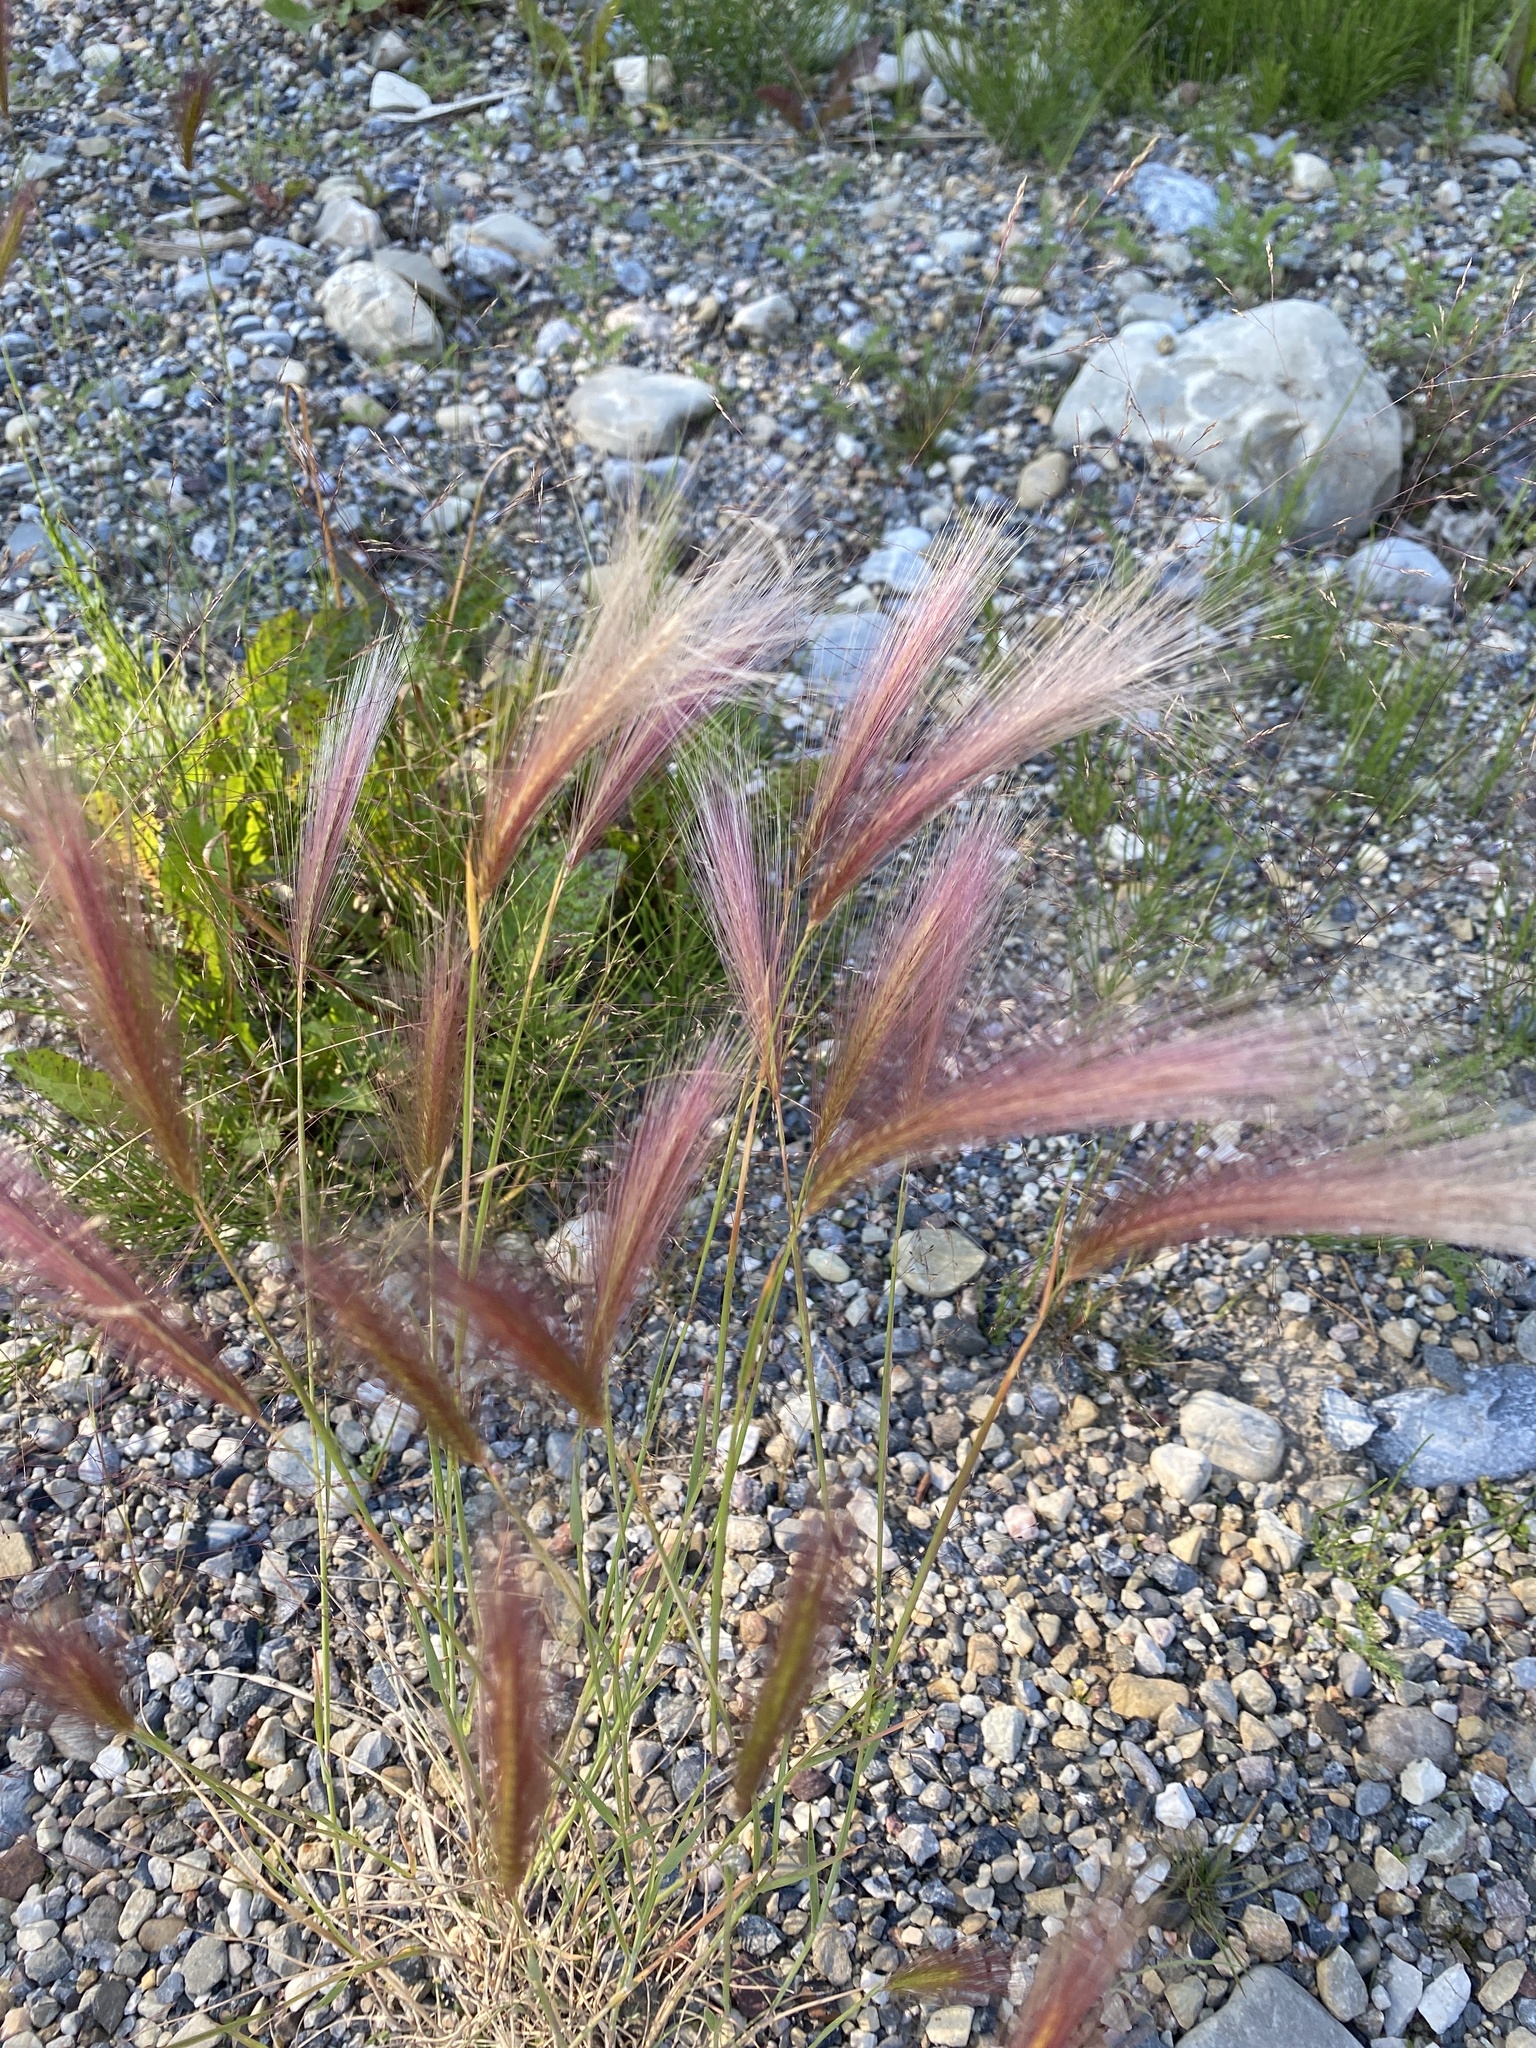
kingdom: Plantae
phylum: Tracheophyta
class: Liliopsida
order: Poales
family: Poaceae
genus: Hordeum
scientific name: Hordeum jubatum
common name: Foxtail barley
